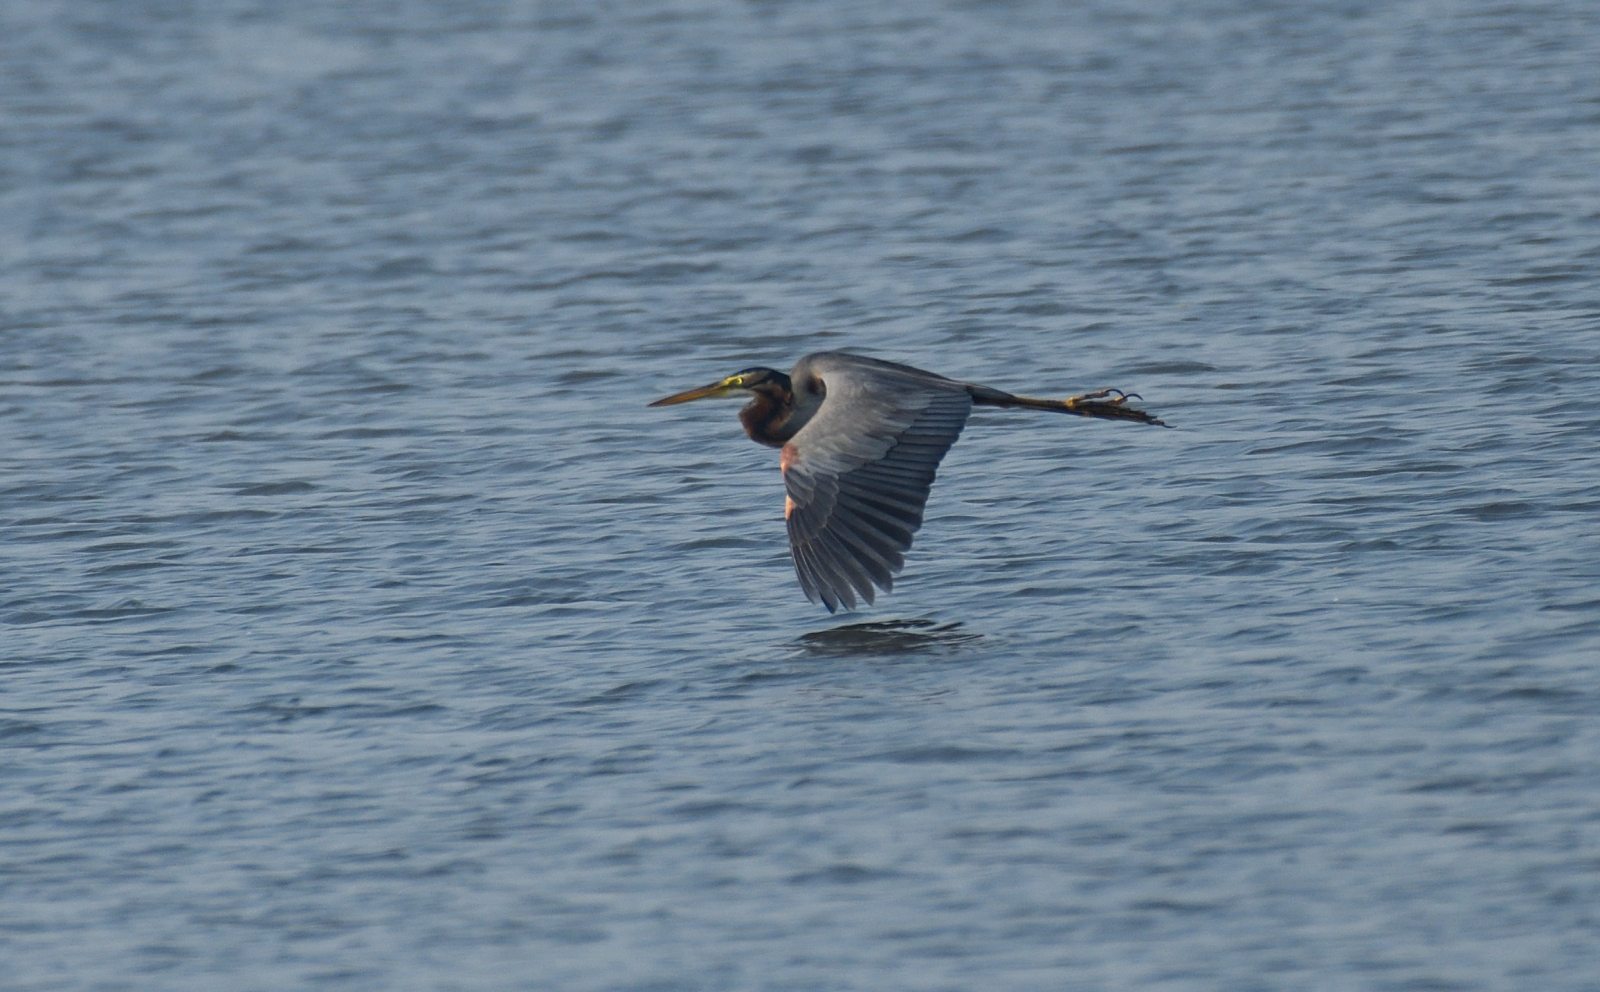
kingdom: Animalia
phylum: Chordata
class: Aves
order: Pelecaniformes
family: Ardeidae
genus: Ardea
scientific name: Ardea purpurea
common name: Purple heron
